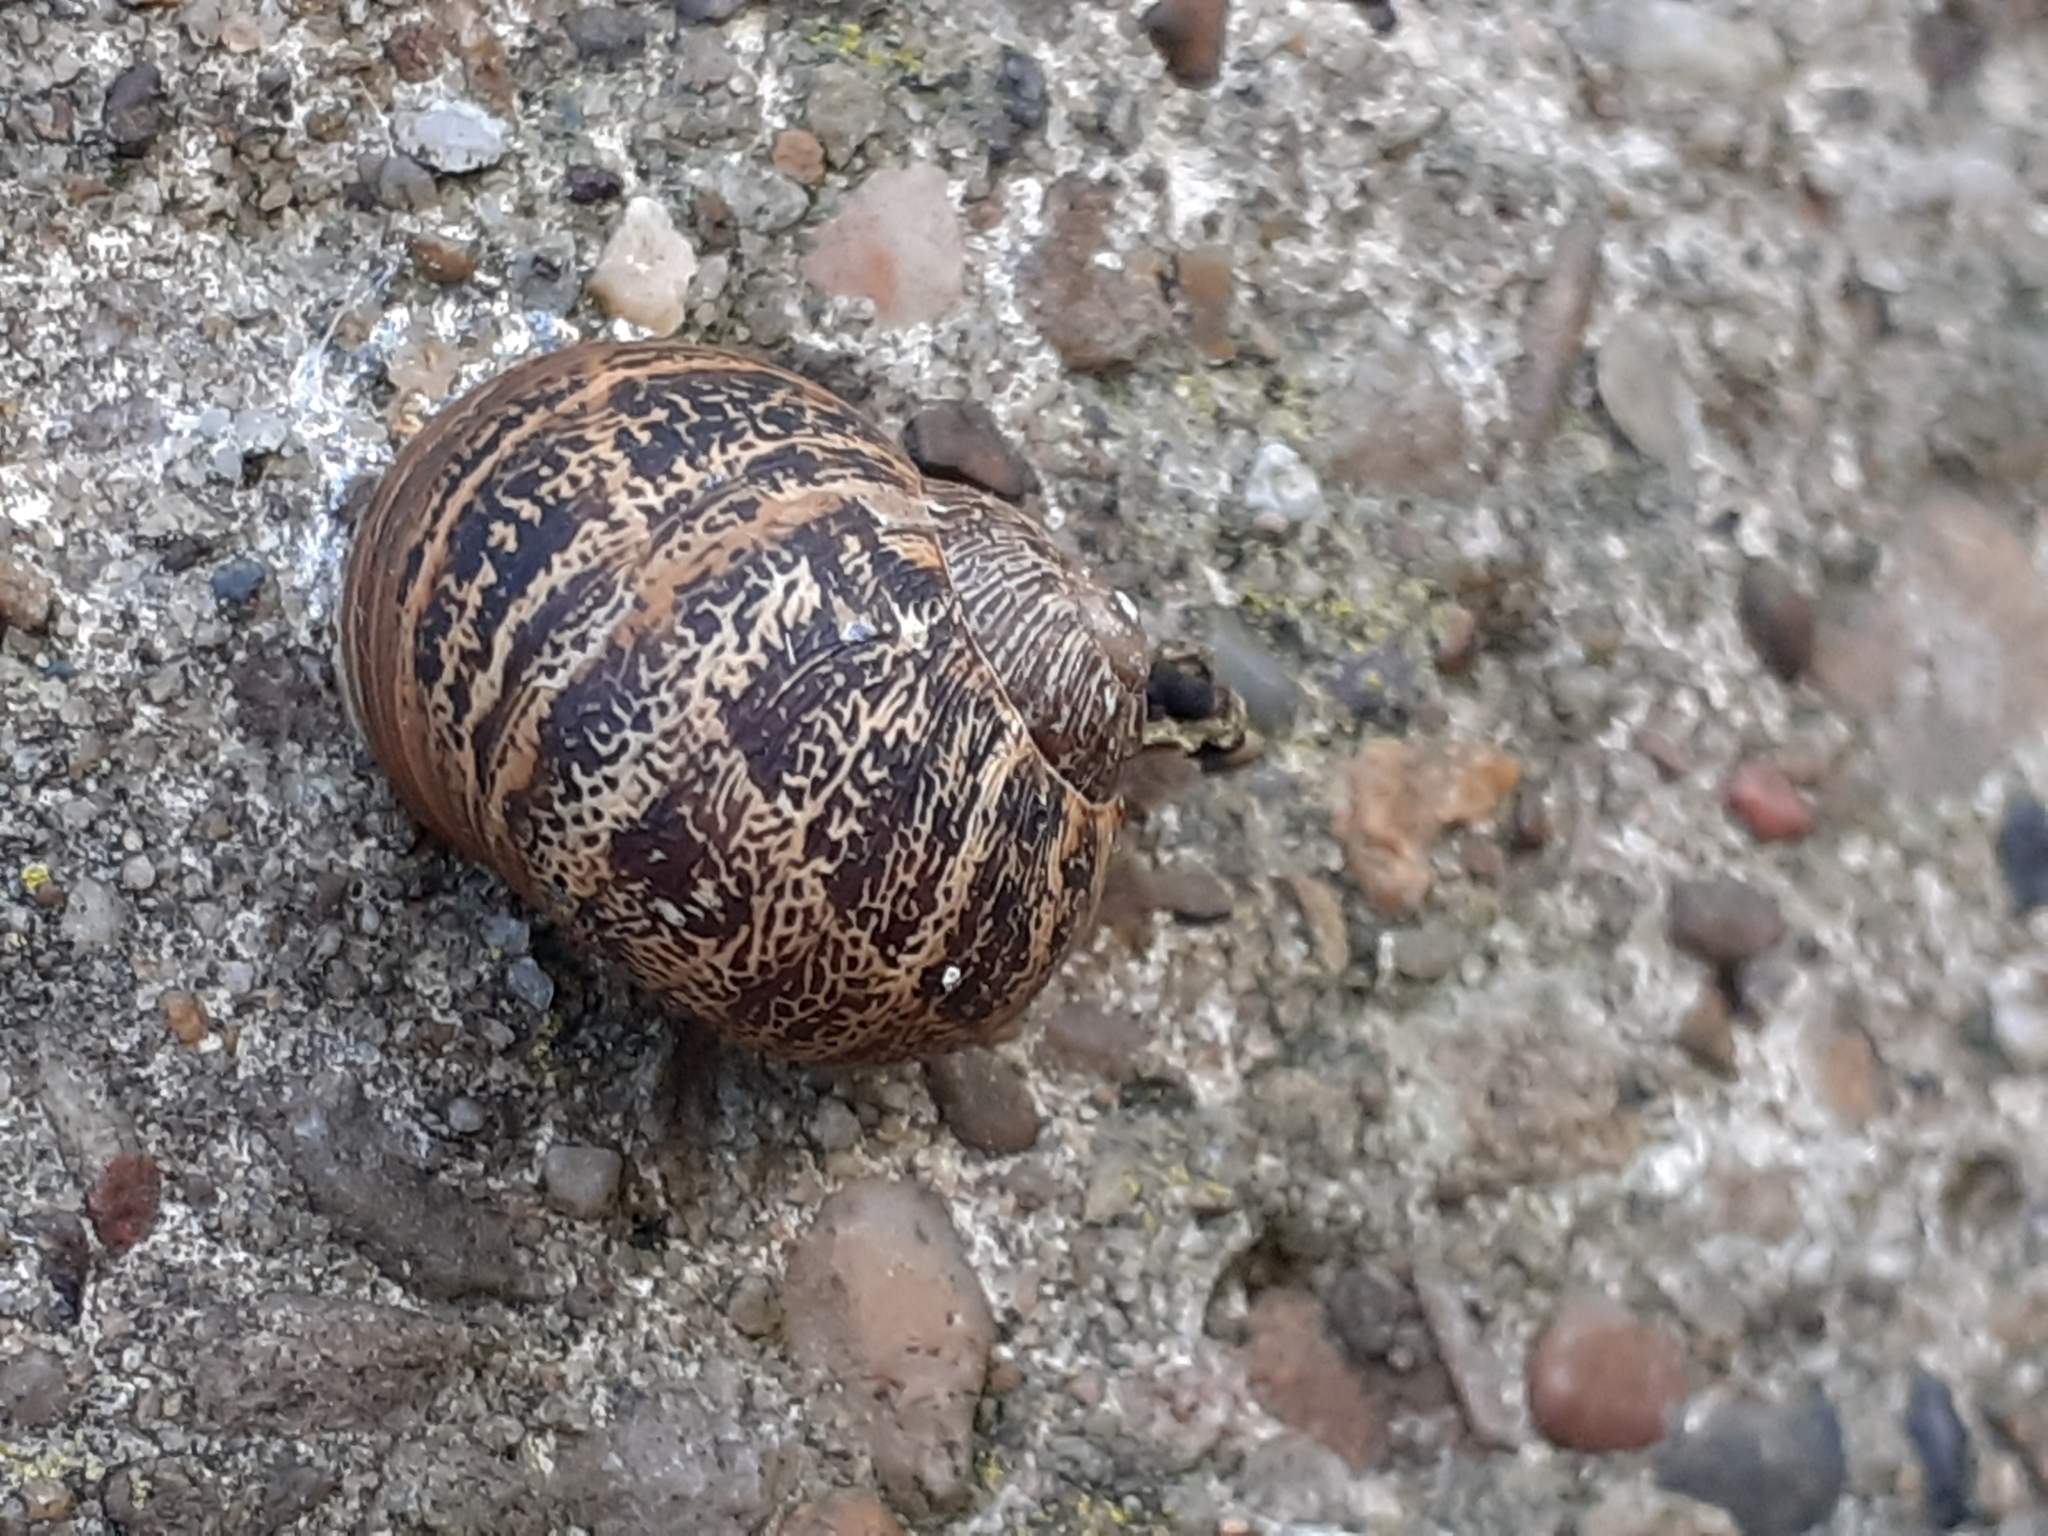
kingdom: Animalia
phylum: Mollusca
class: Gastropoda
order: Stylommatophora
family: Helicidae
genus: Cornu
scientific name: Cornu aspersum
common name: Brown garden snail
